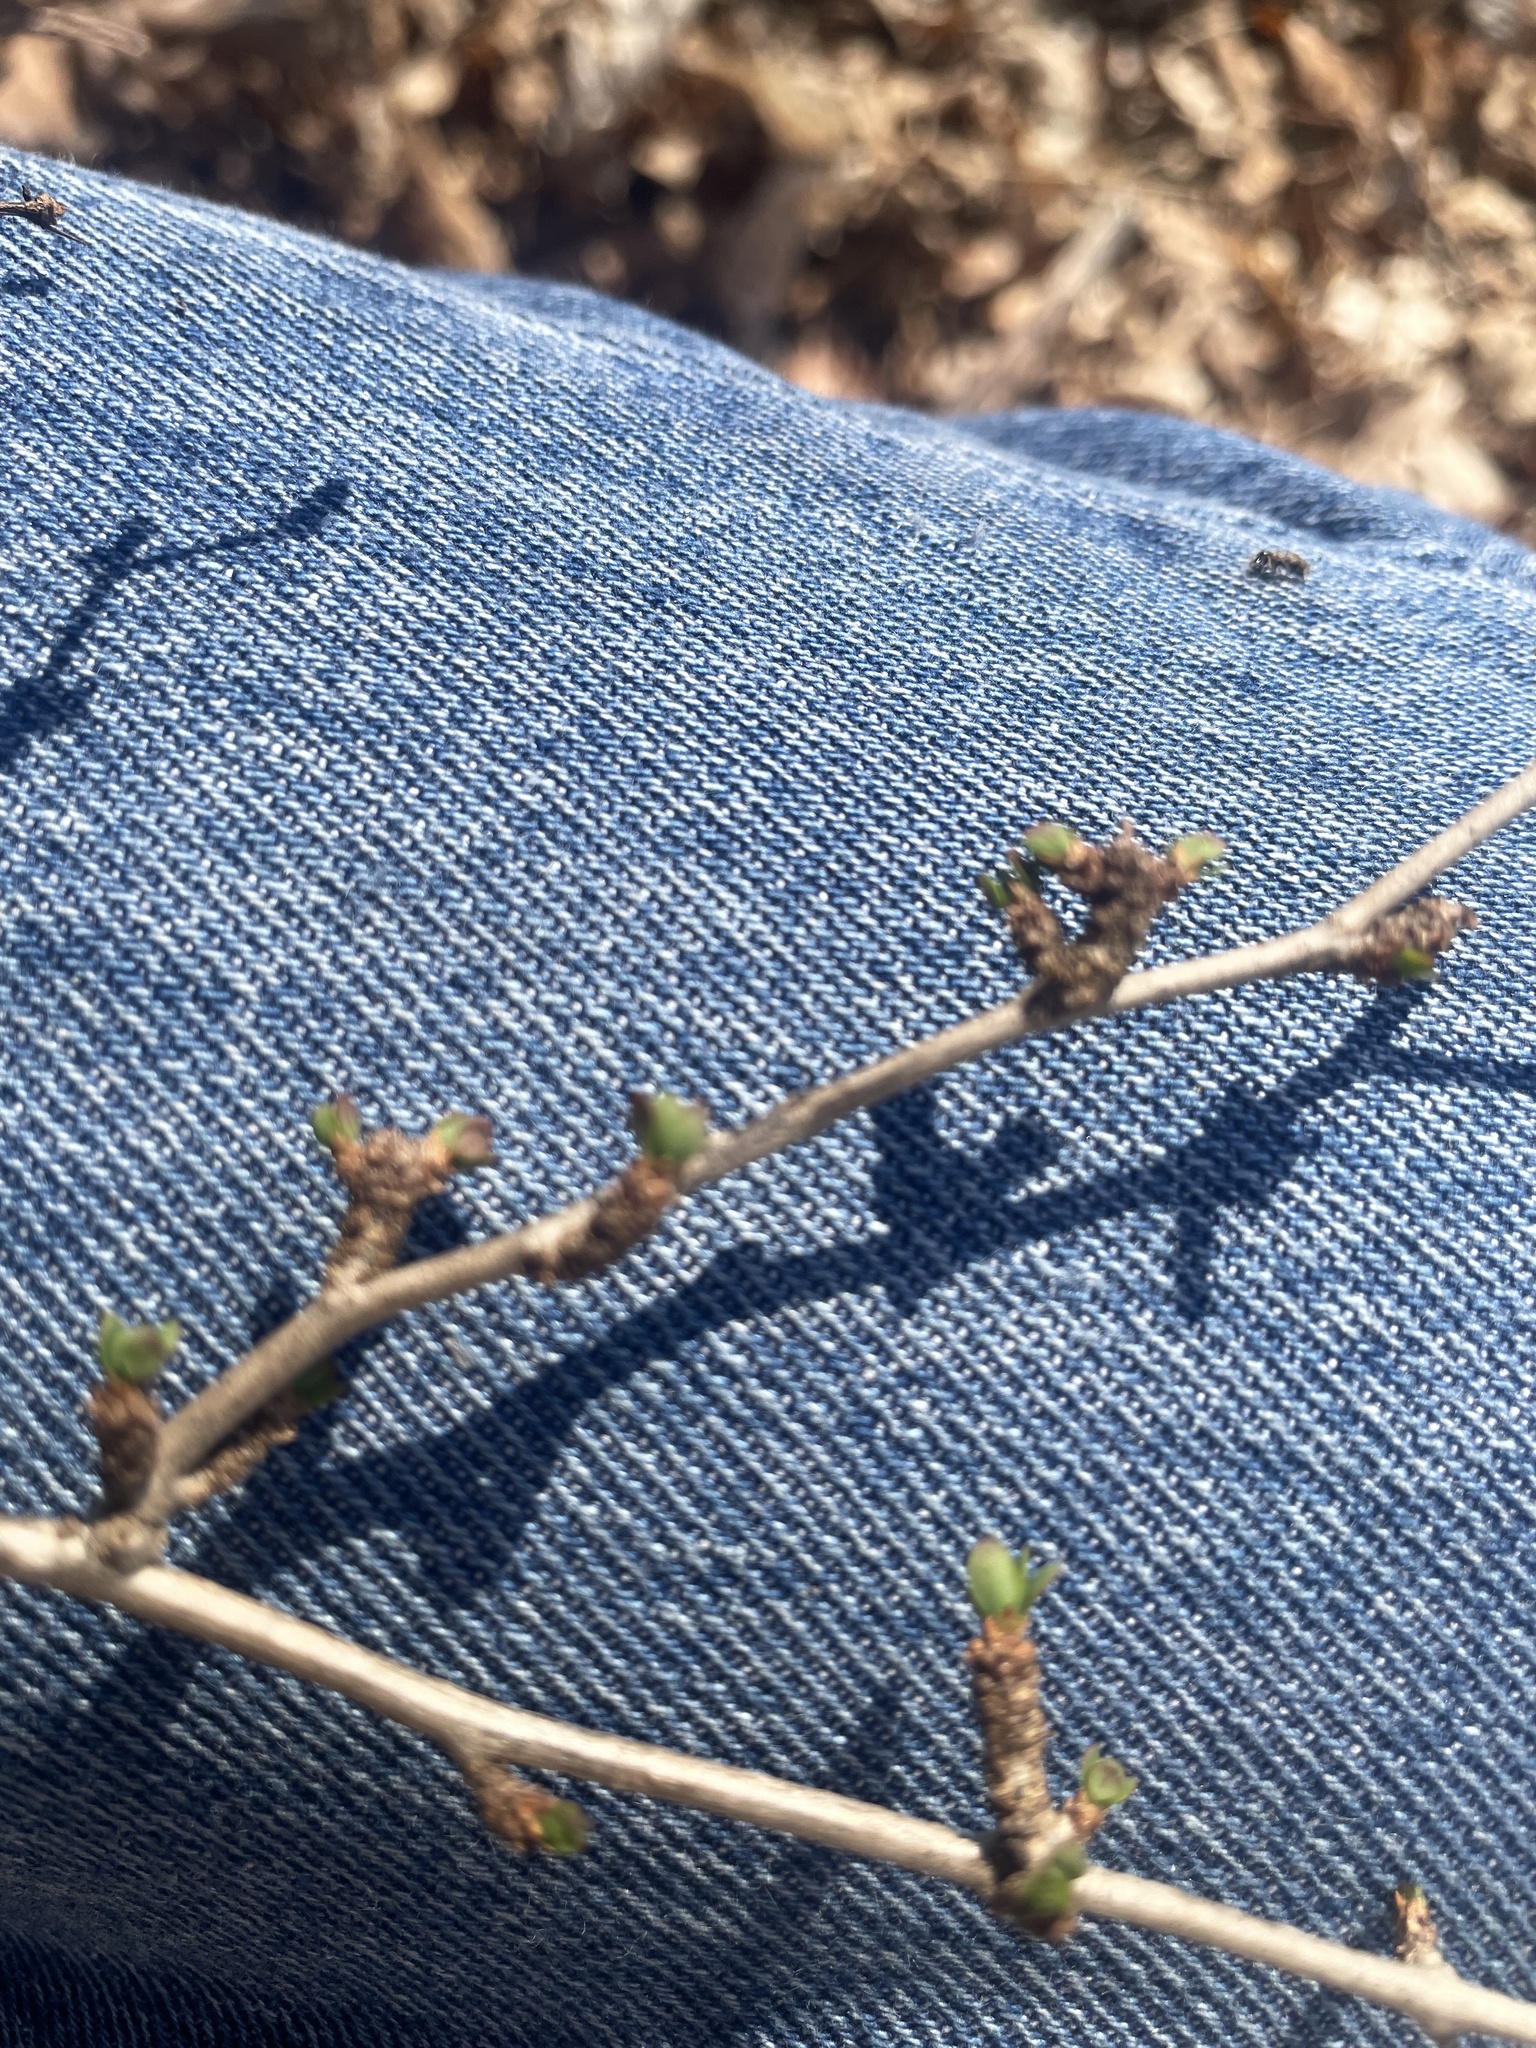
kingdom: Plantae
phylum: Tracheophyta
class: Magnoliopsida
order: Ranunculales
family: Berberidaceae
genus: Berberis
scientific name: Berberis thunbergii
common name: Japanese barberry
